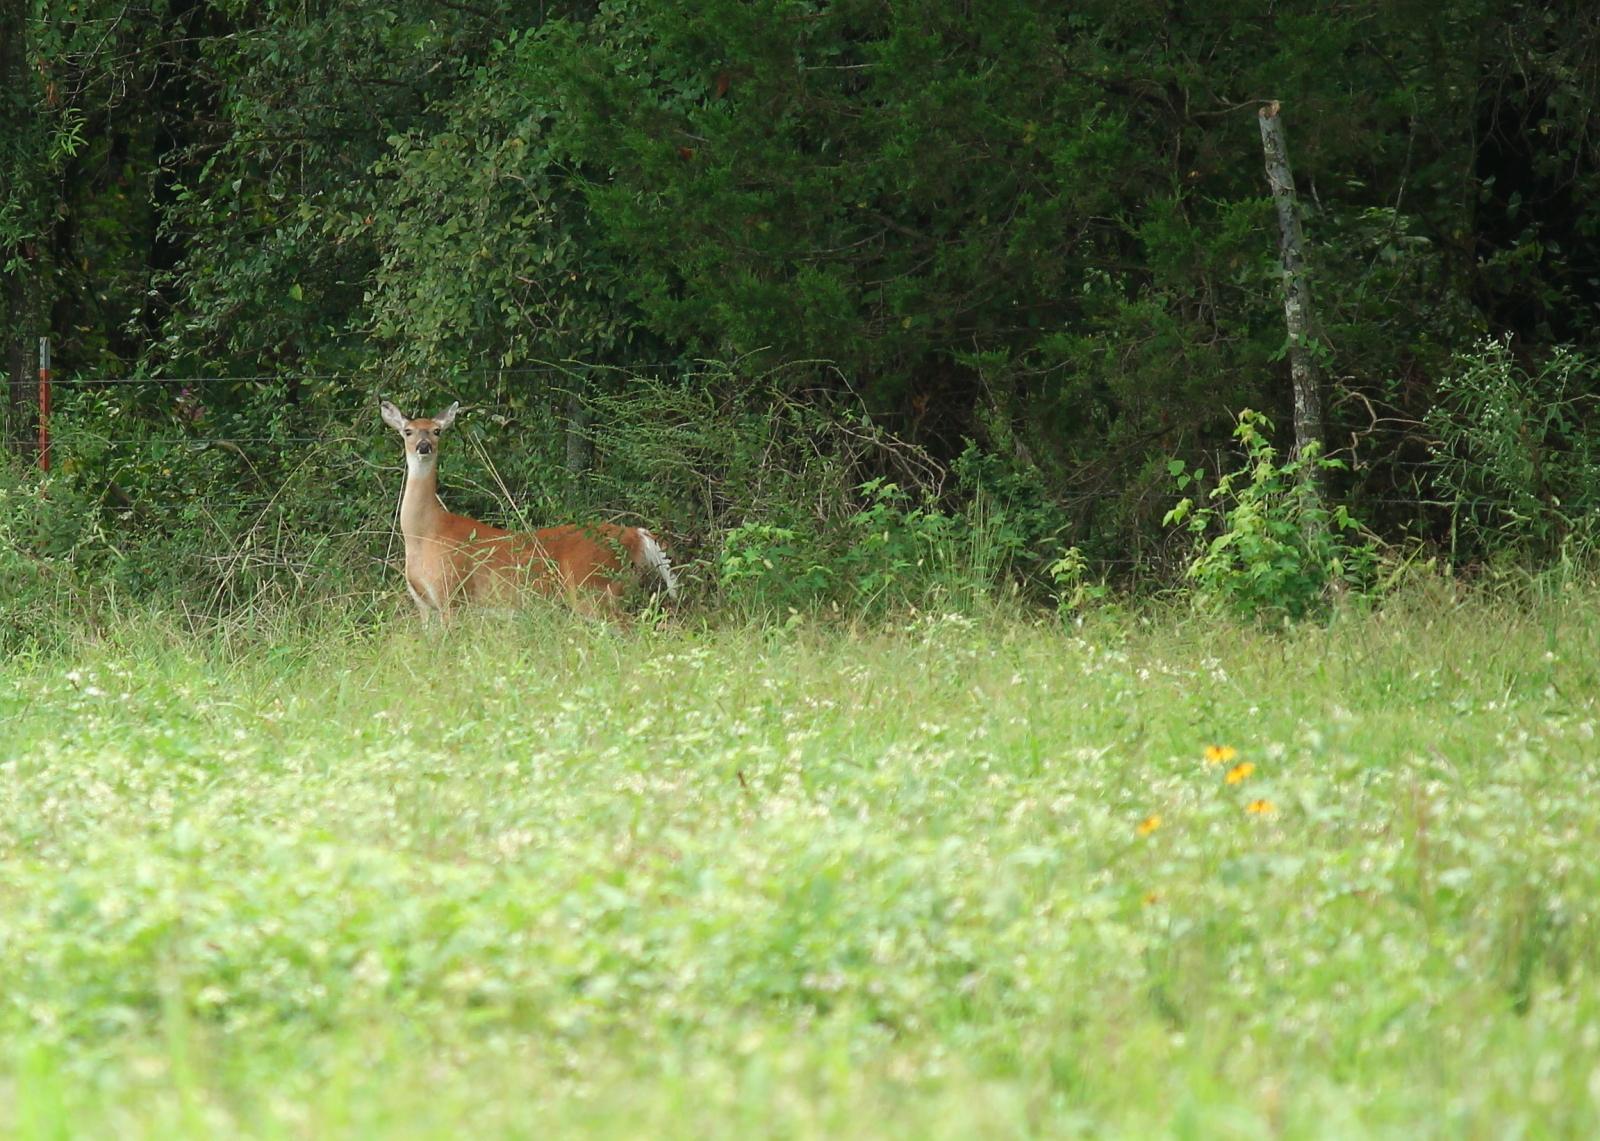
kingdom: Animalia
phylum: Chordata
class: Mammalia
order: Artiodactyla
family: Cervidae
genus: Odocoileus
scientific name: Odocoileus virginianus
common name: White-tailed deer
